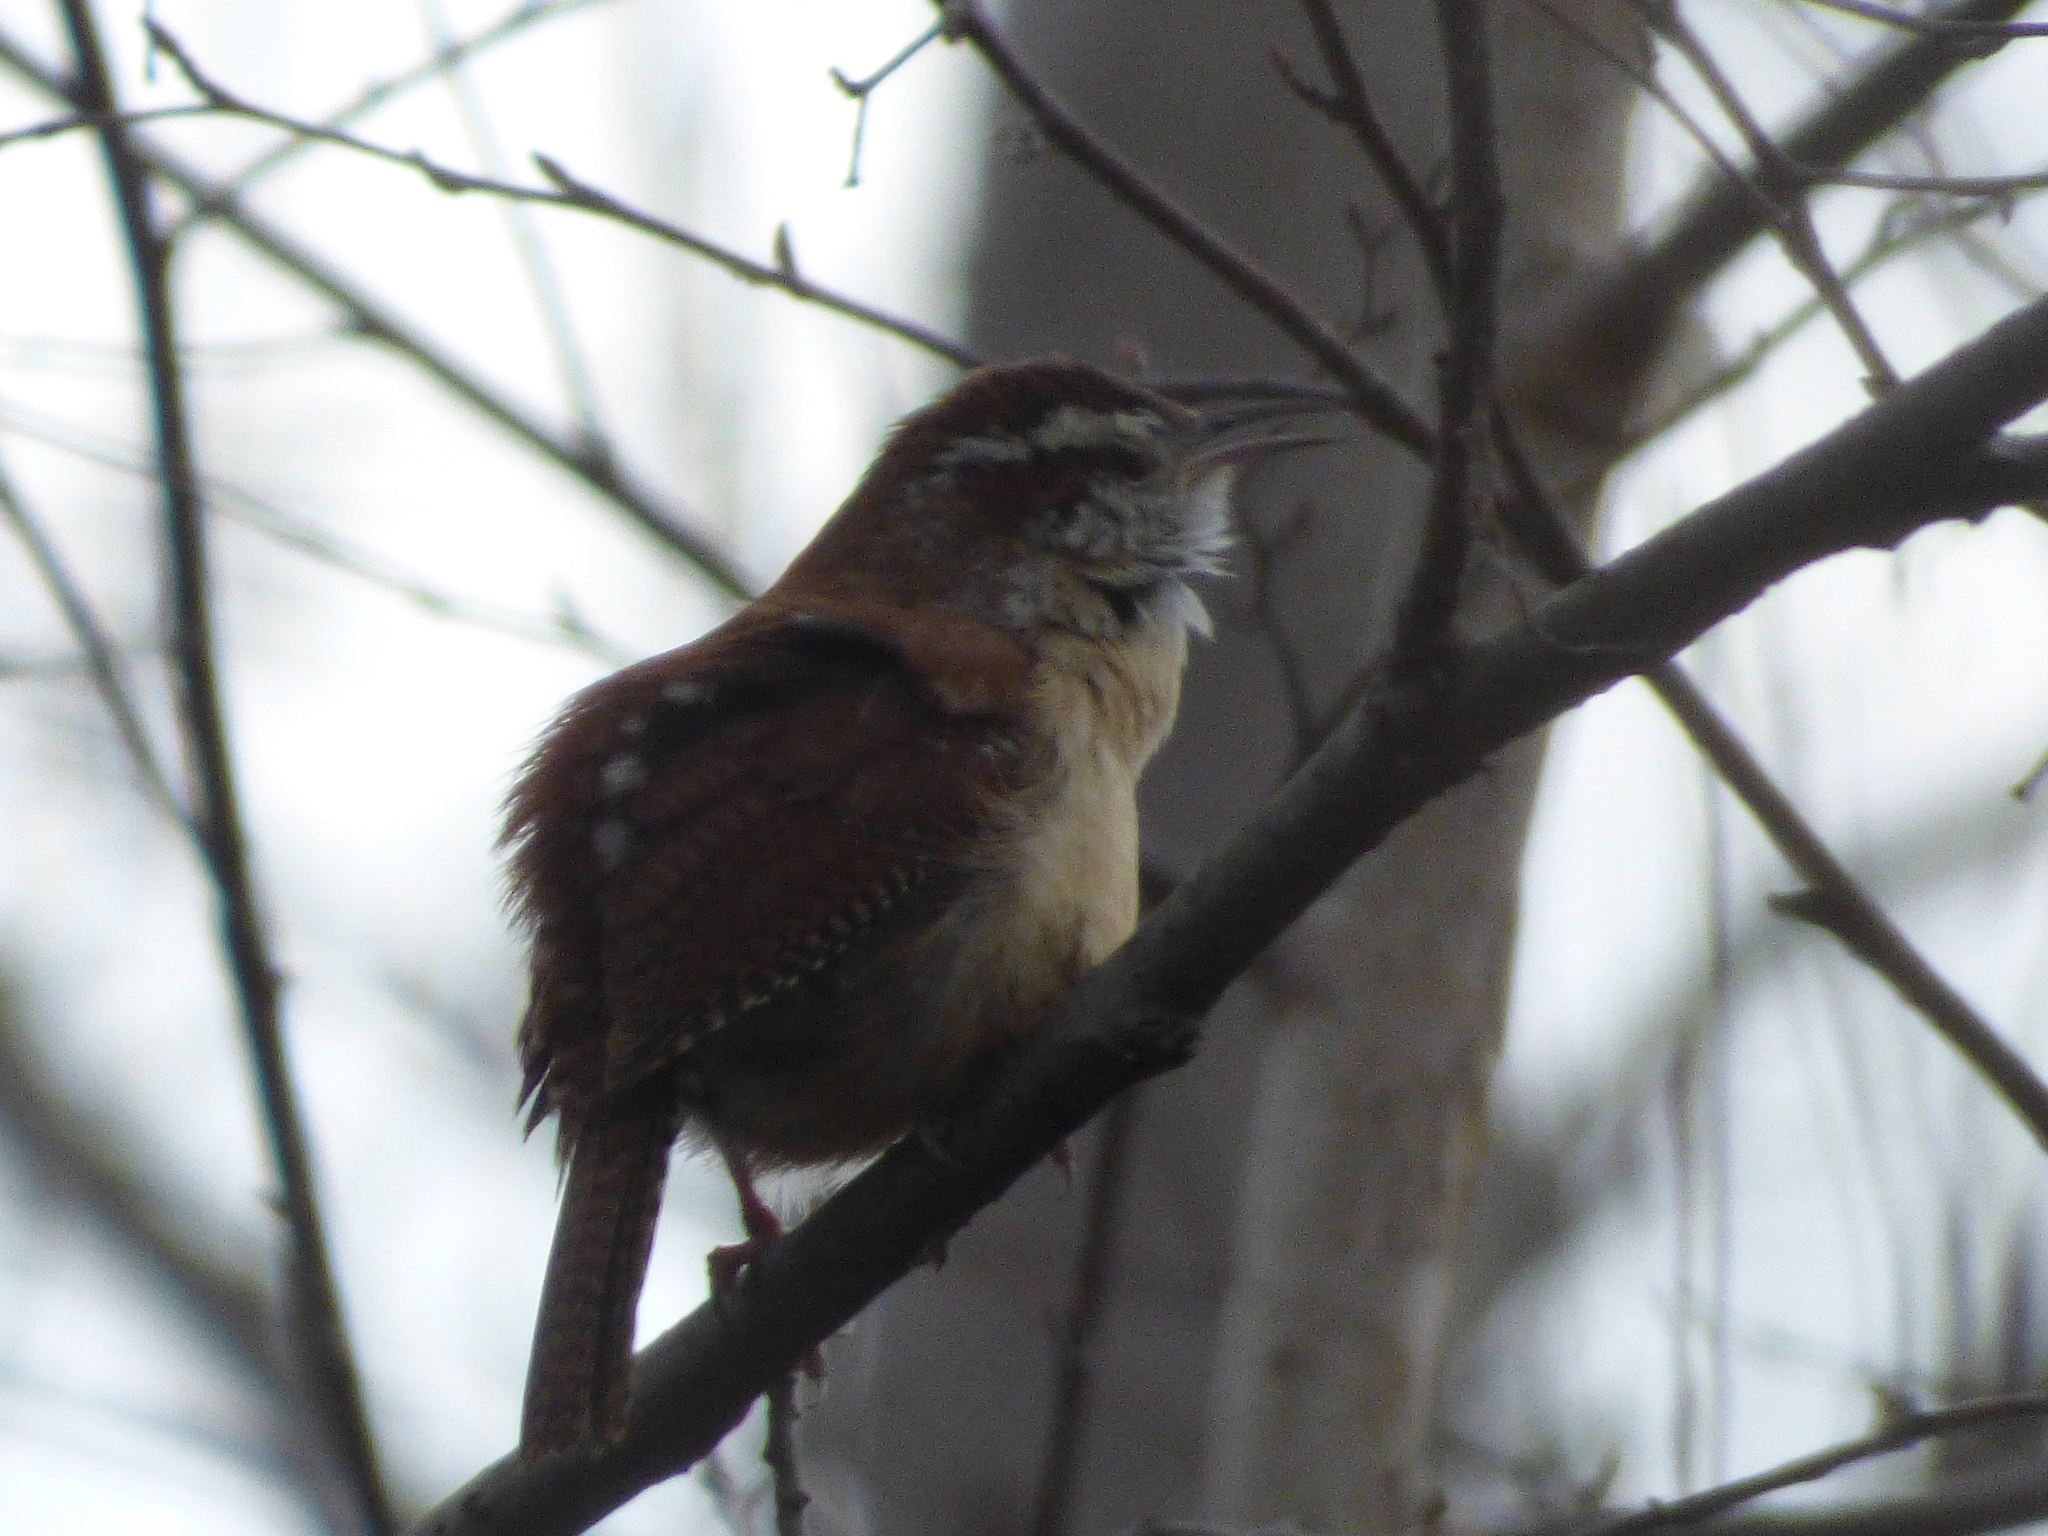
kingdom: Animalia
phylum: Chordata
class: Aves
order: Passeriformes
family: Troglodytidae
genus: Thryothorus
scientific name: Thryothorus ludovicianus
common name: Carolina wren
